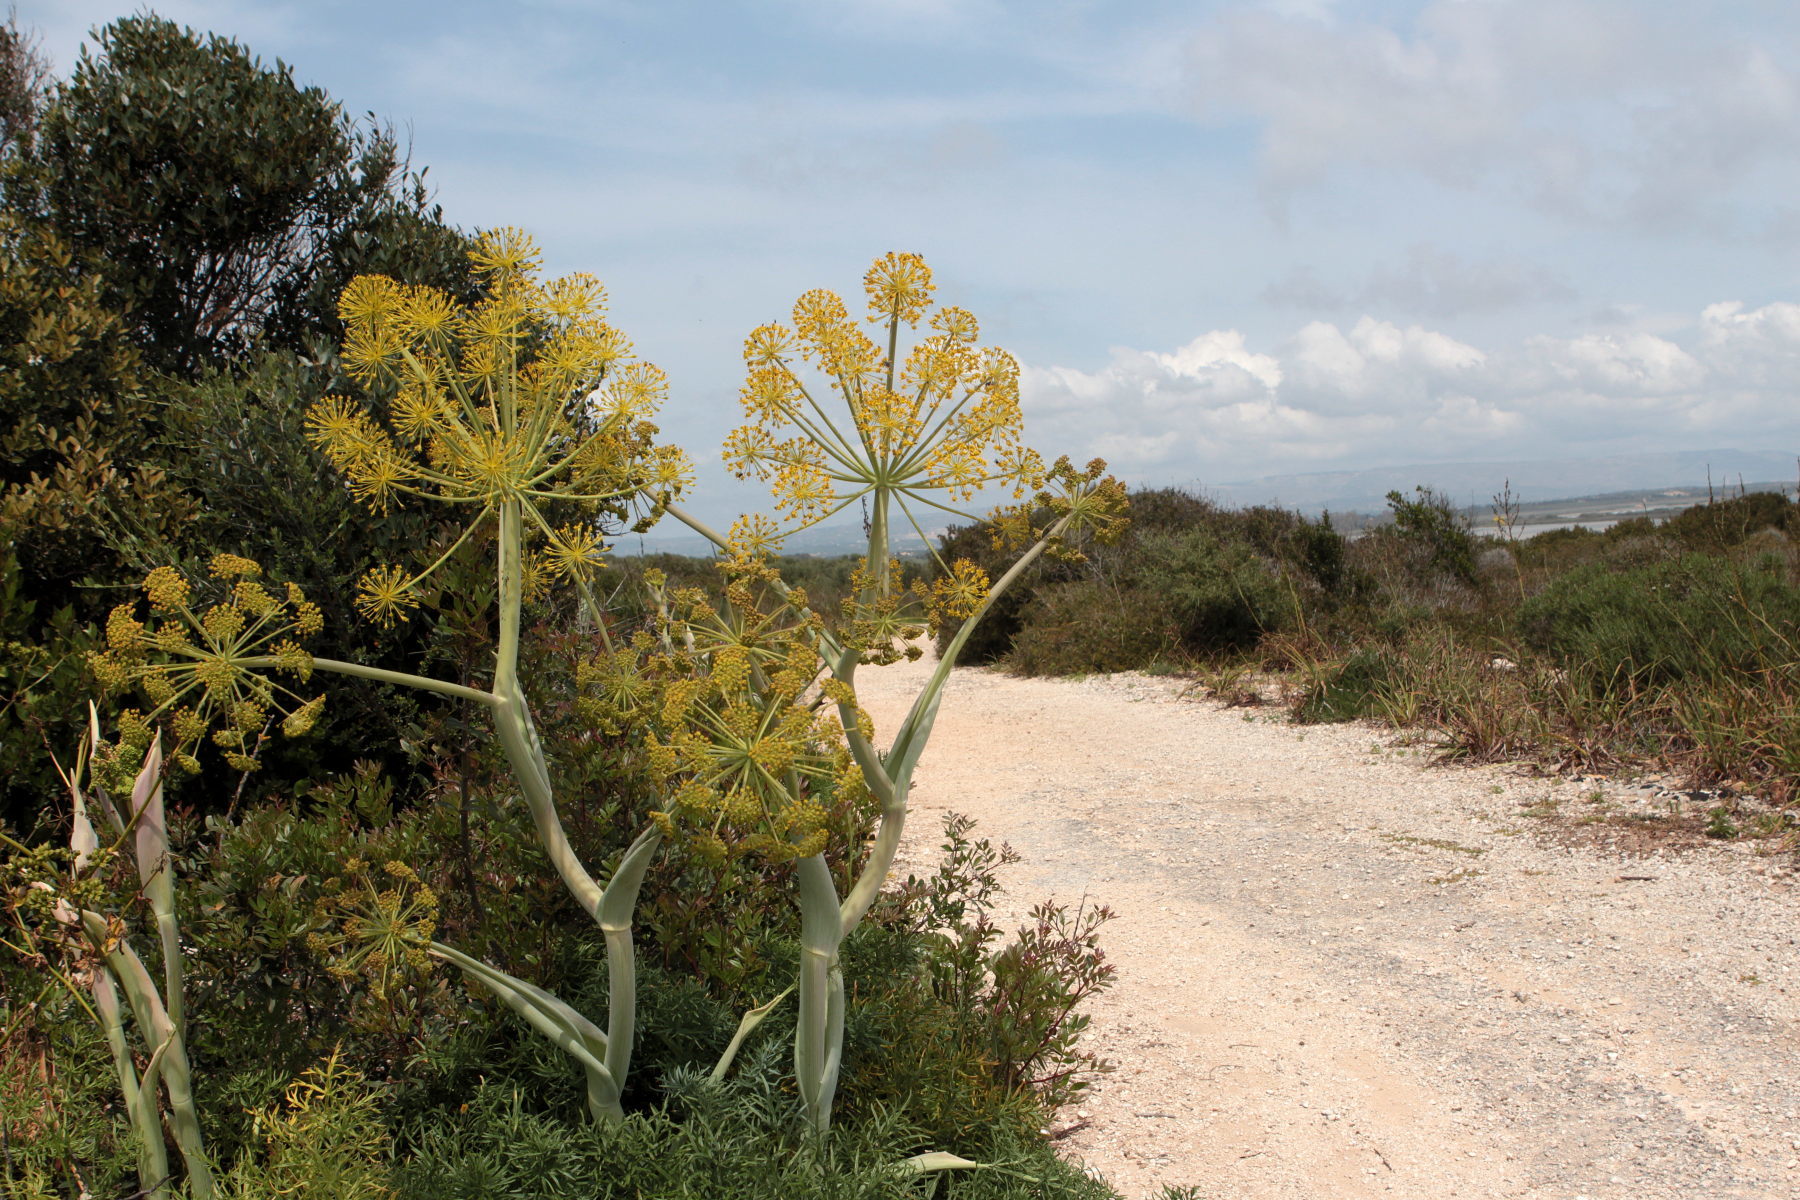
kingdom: Plantae
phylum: Tracheophyta
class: Magnoliopsida
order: Apiales
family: Apiaceae
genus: Thapsia
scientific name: Thapsia garganica
